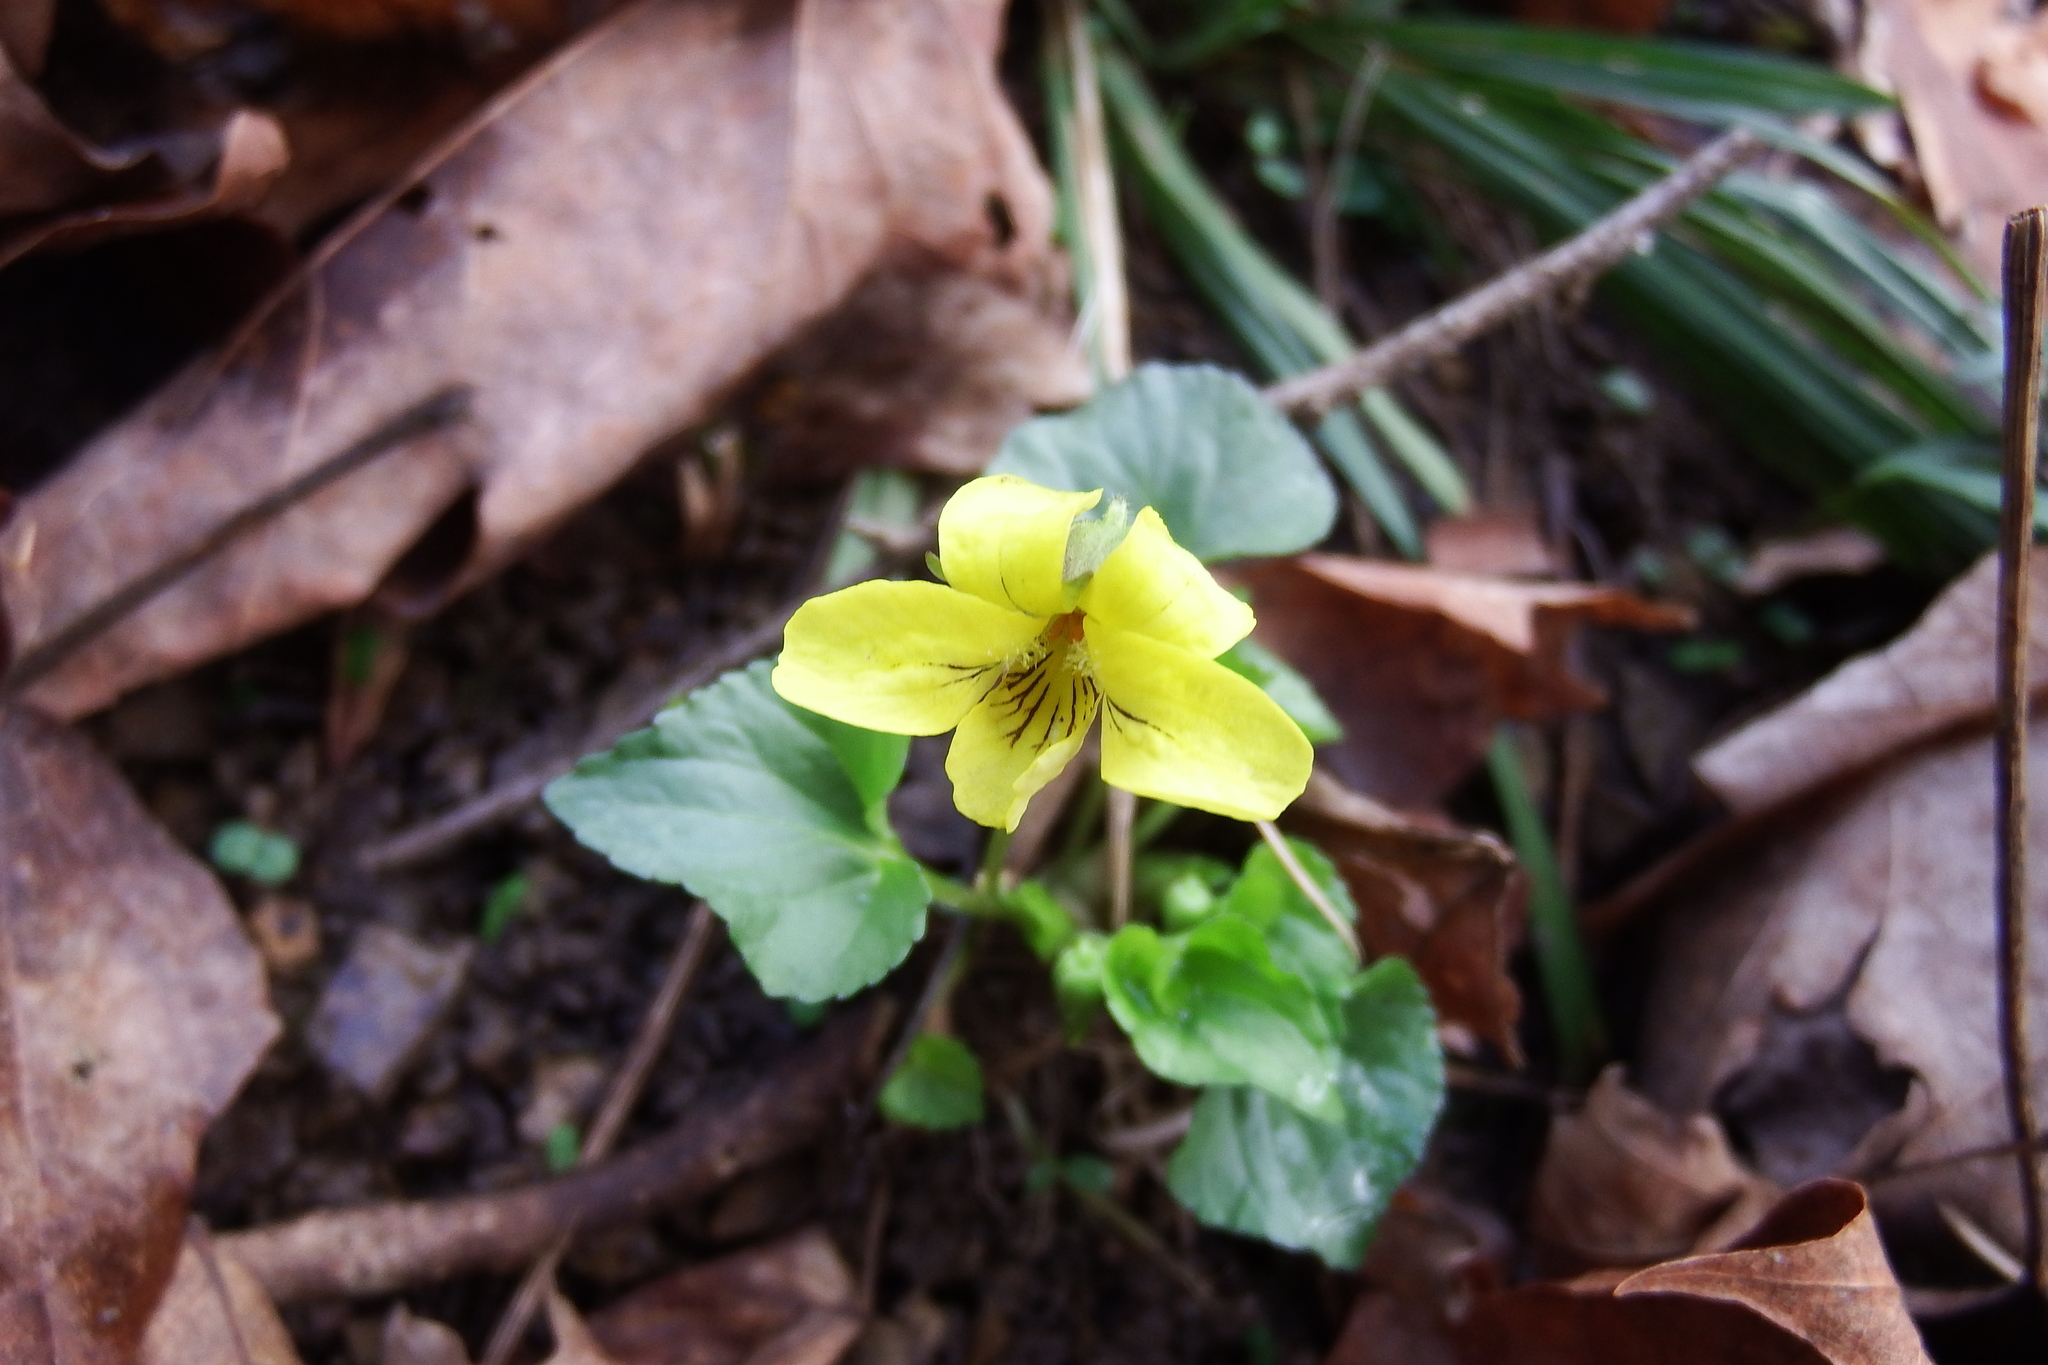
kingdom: Plantae
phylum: Tracheophyta
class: Magnoliopsida
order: Malpighiales
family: Violaceae
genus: Viola
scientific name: Viola eriocarpa
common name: Smooth yellow violet
